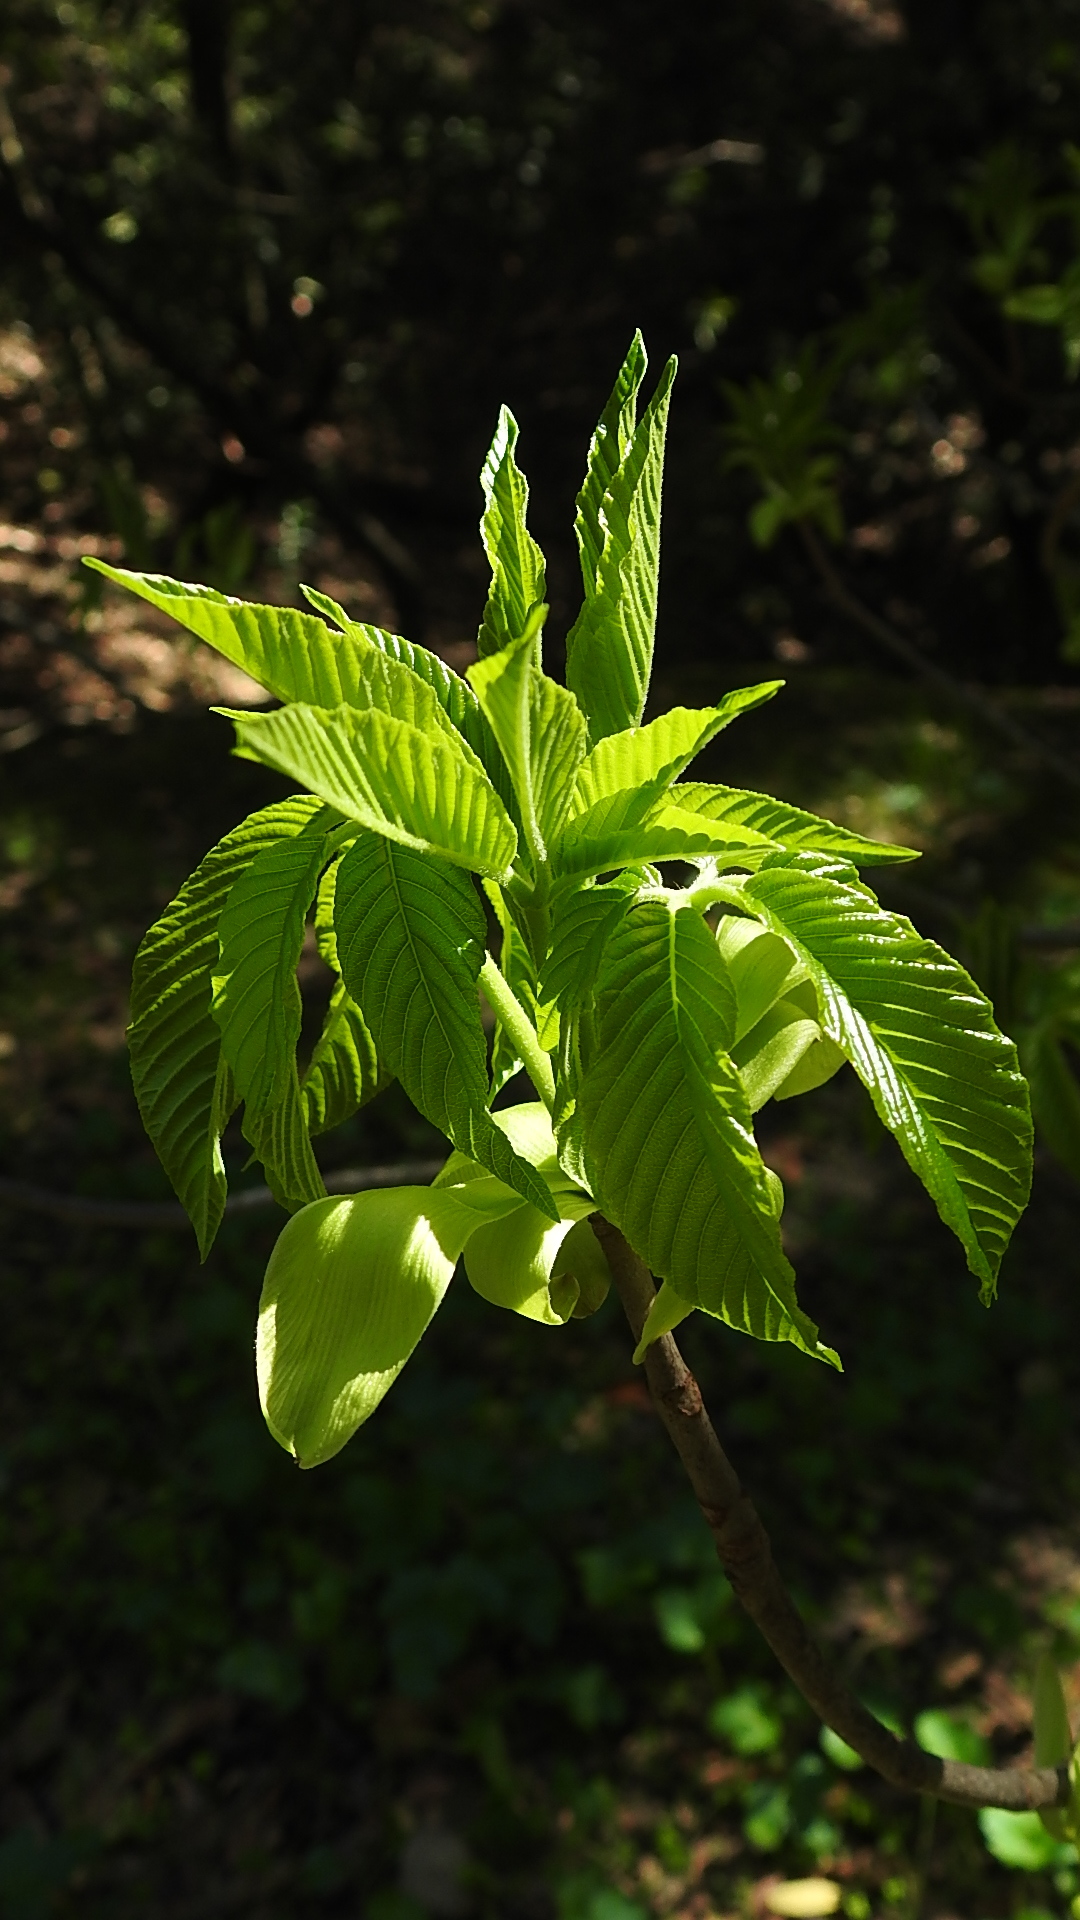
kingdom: Plantae
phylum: Tracheophyta
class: Magnoliopsida
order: Sapindales
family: Sapindaceae
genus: Aesculus
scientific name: Aesculus californica
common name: California buckeye
